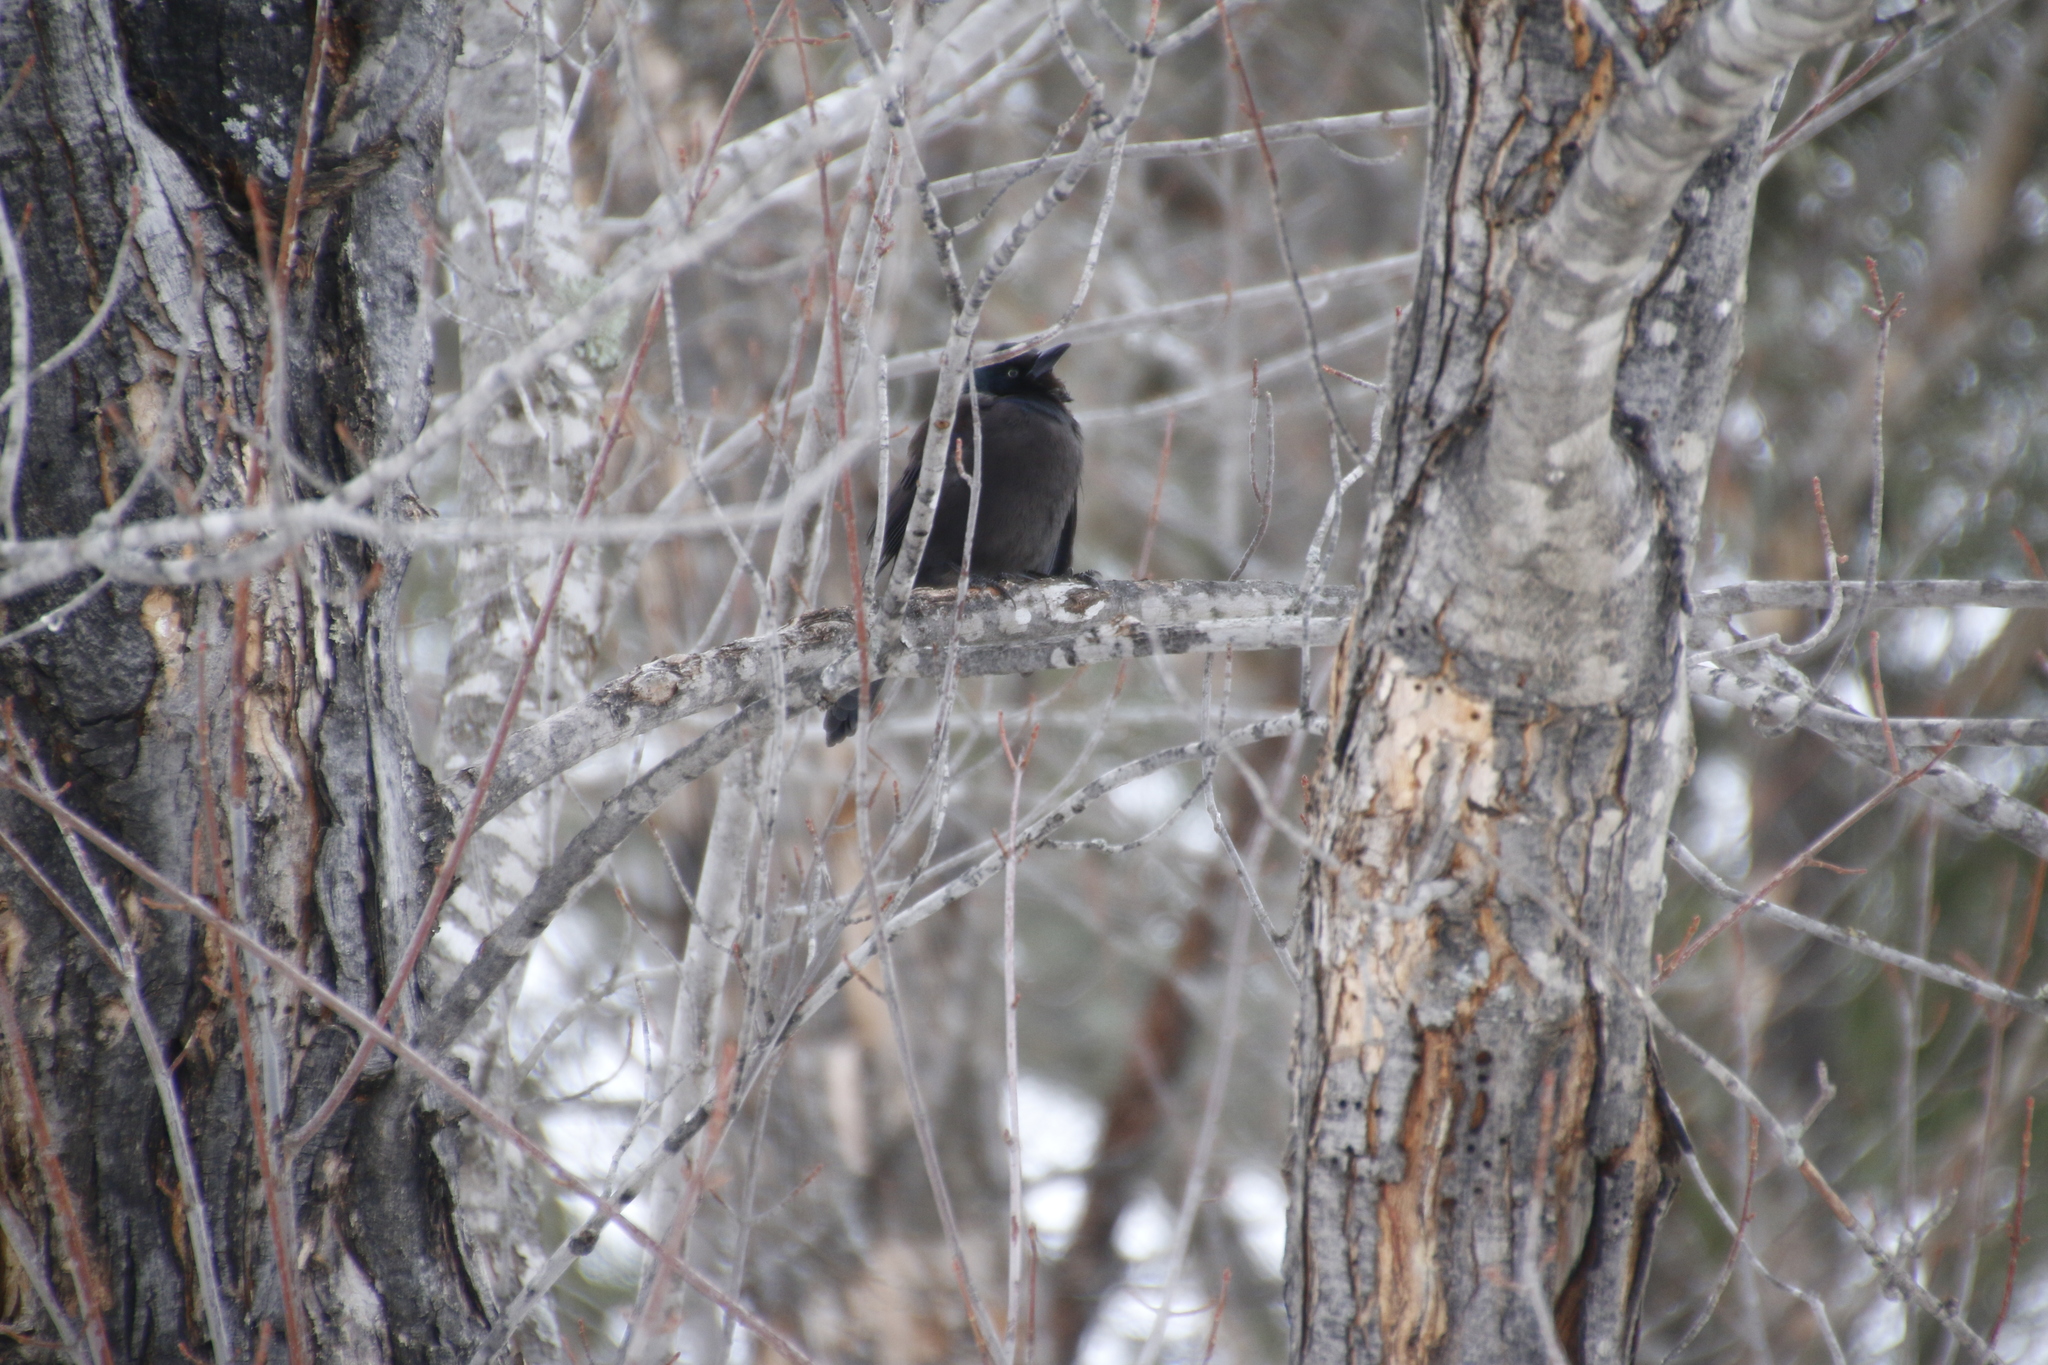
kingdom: Animalia
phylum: Chordata
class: Aves
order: Passeriformes
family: Icteridae
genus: Quiscalus
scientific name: Quiscalus quiscula
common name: Common grackle
